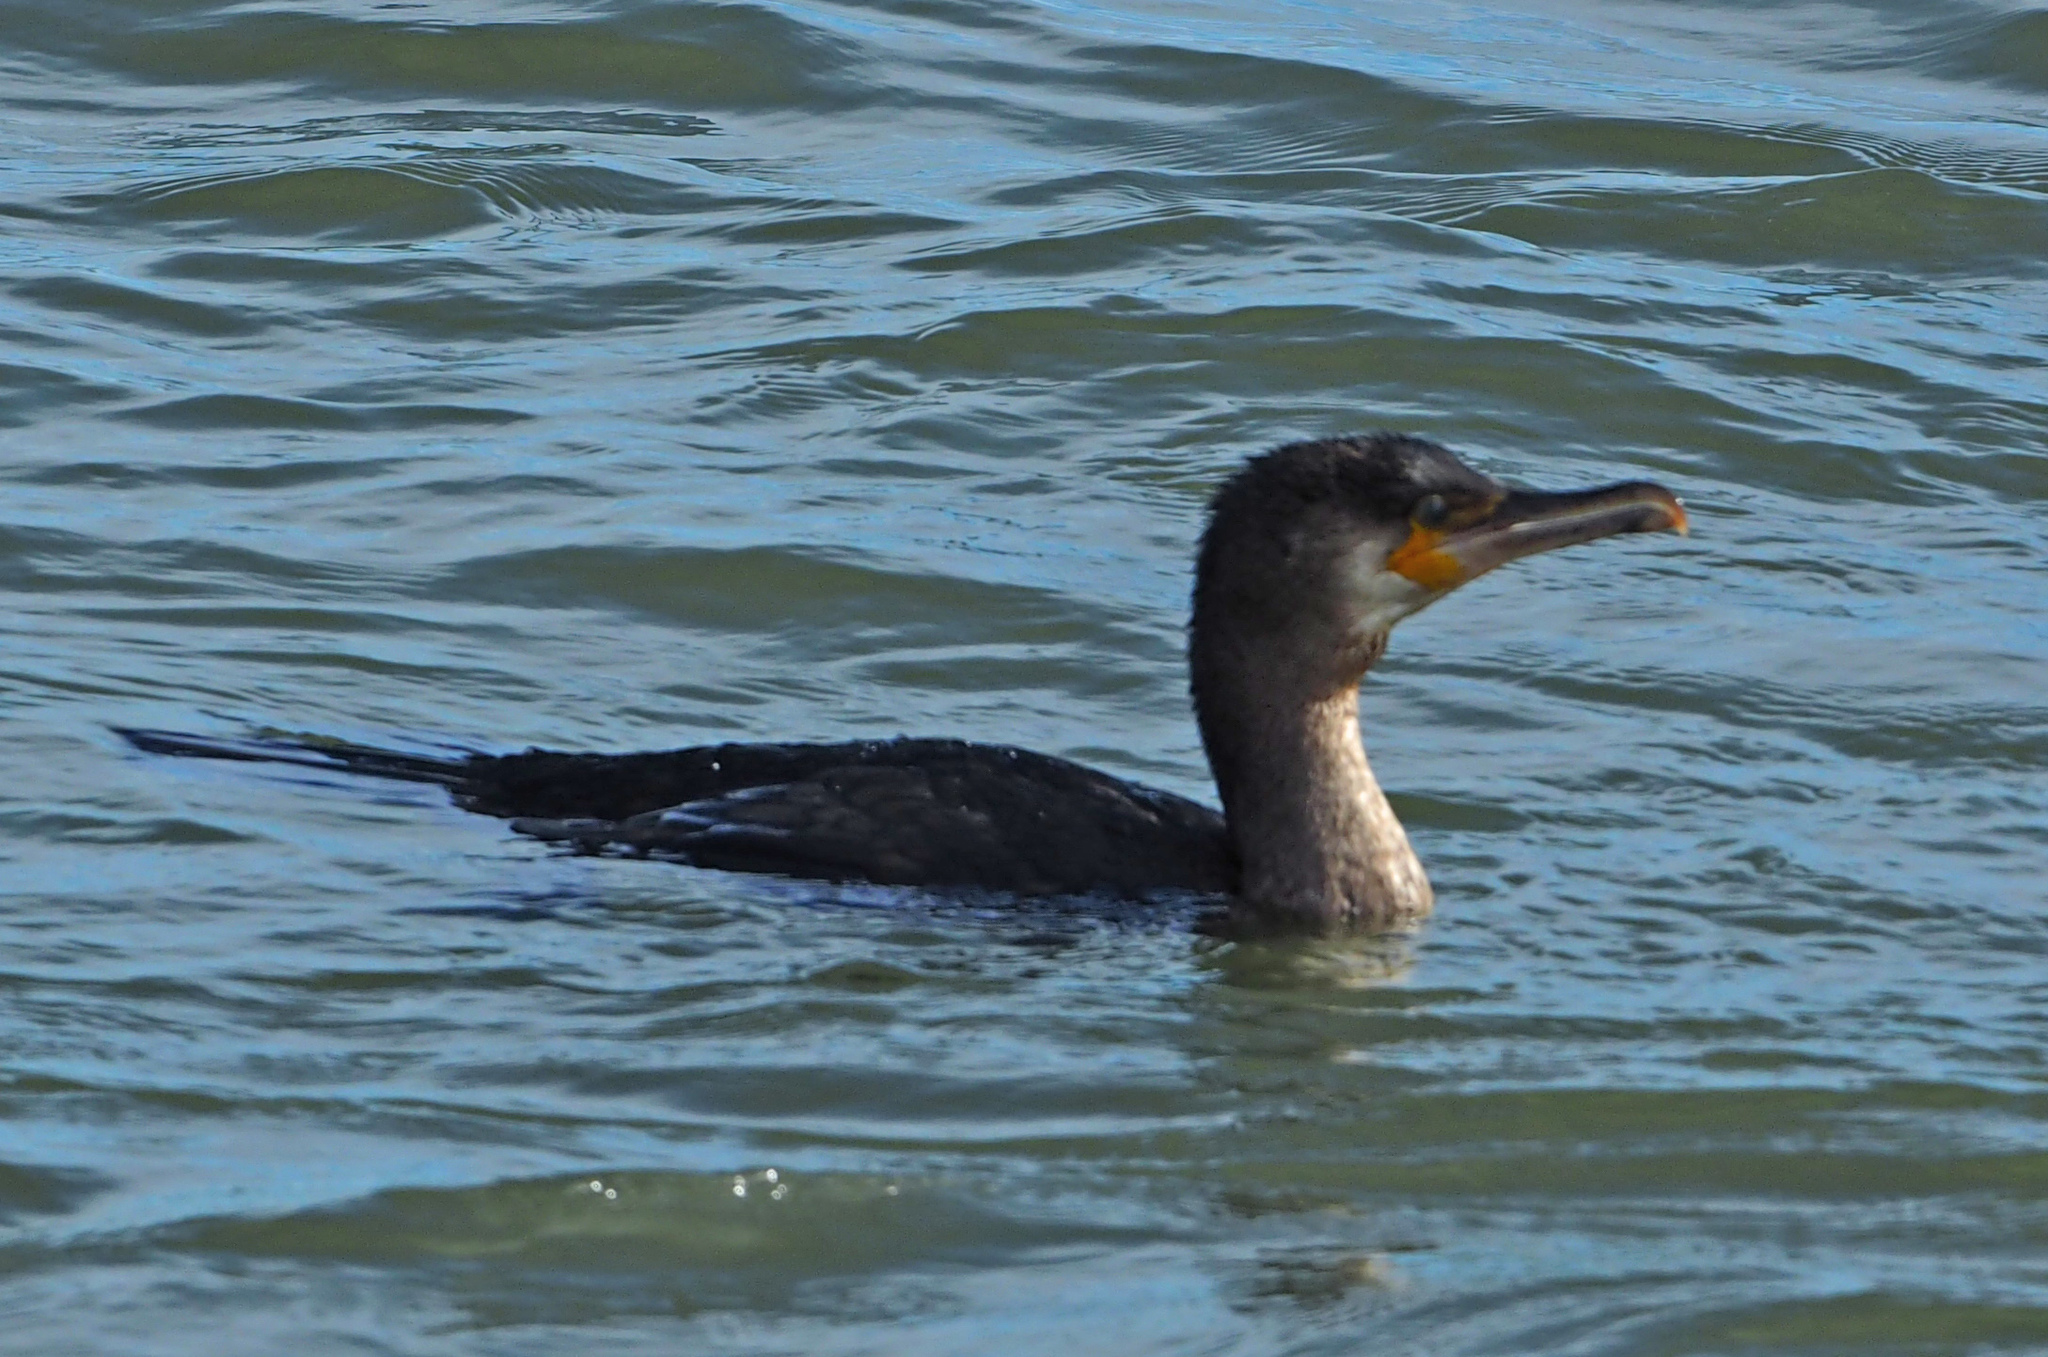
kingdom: Animalia
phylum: Chordata
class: Aves
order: Suliformes
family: Phalacrocoracidae
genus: Phalacrocorax
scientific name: Phalacrocorax carbo
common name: Great cormorant
